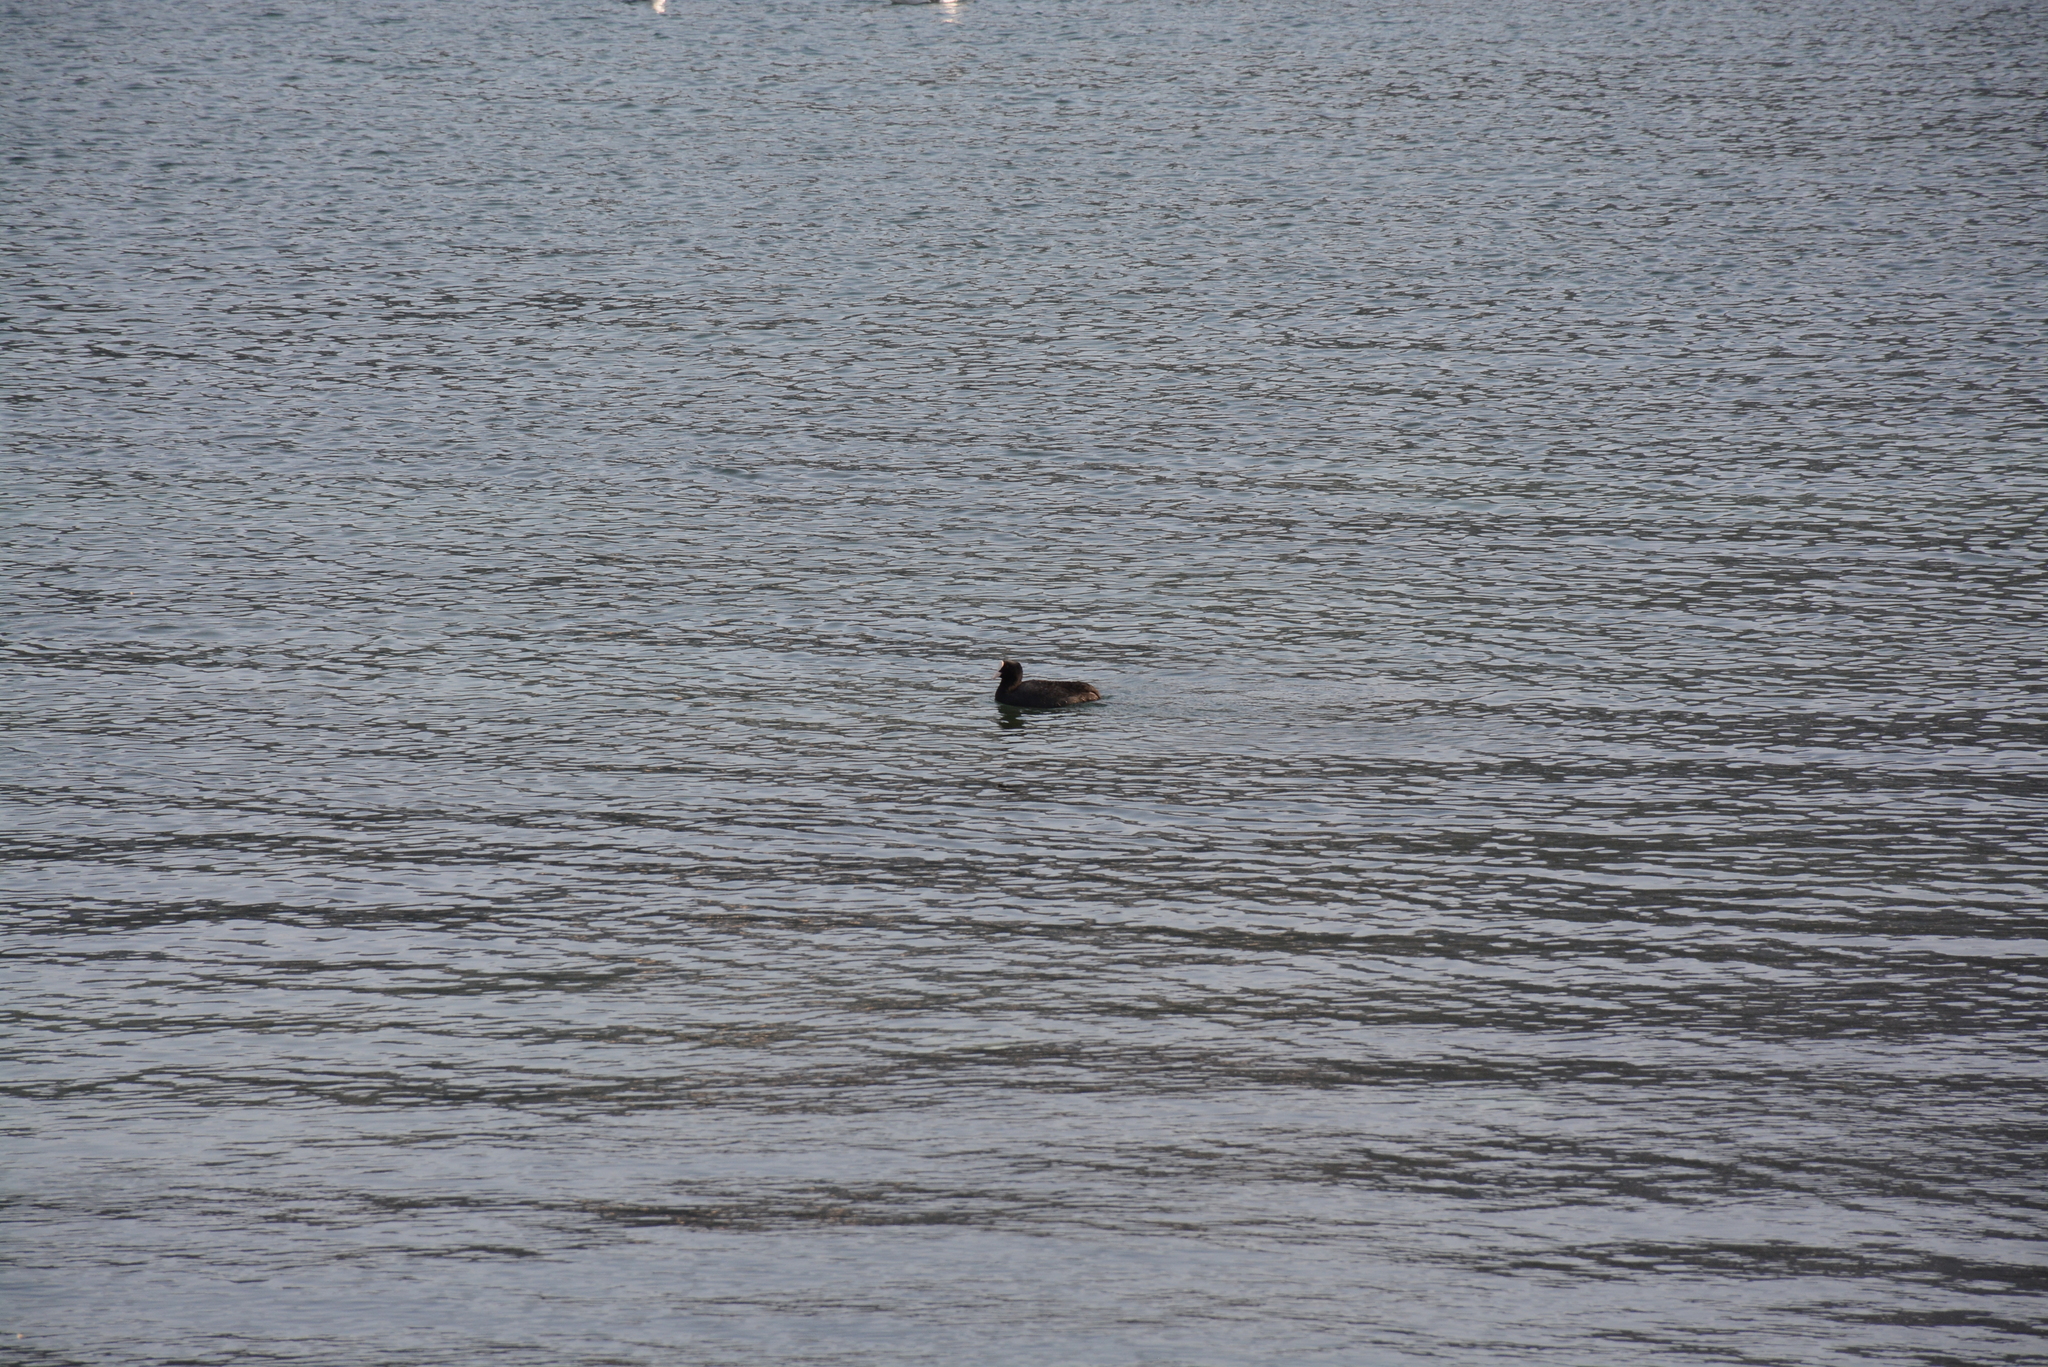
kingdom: Animalia
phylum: Chordata
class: Aves
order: Gruiformes
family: Rallidae
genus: Fulica
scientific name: Fulica atra
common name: Eurasian coot
